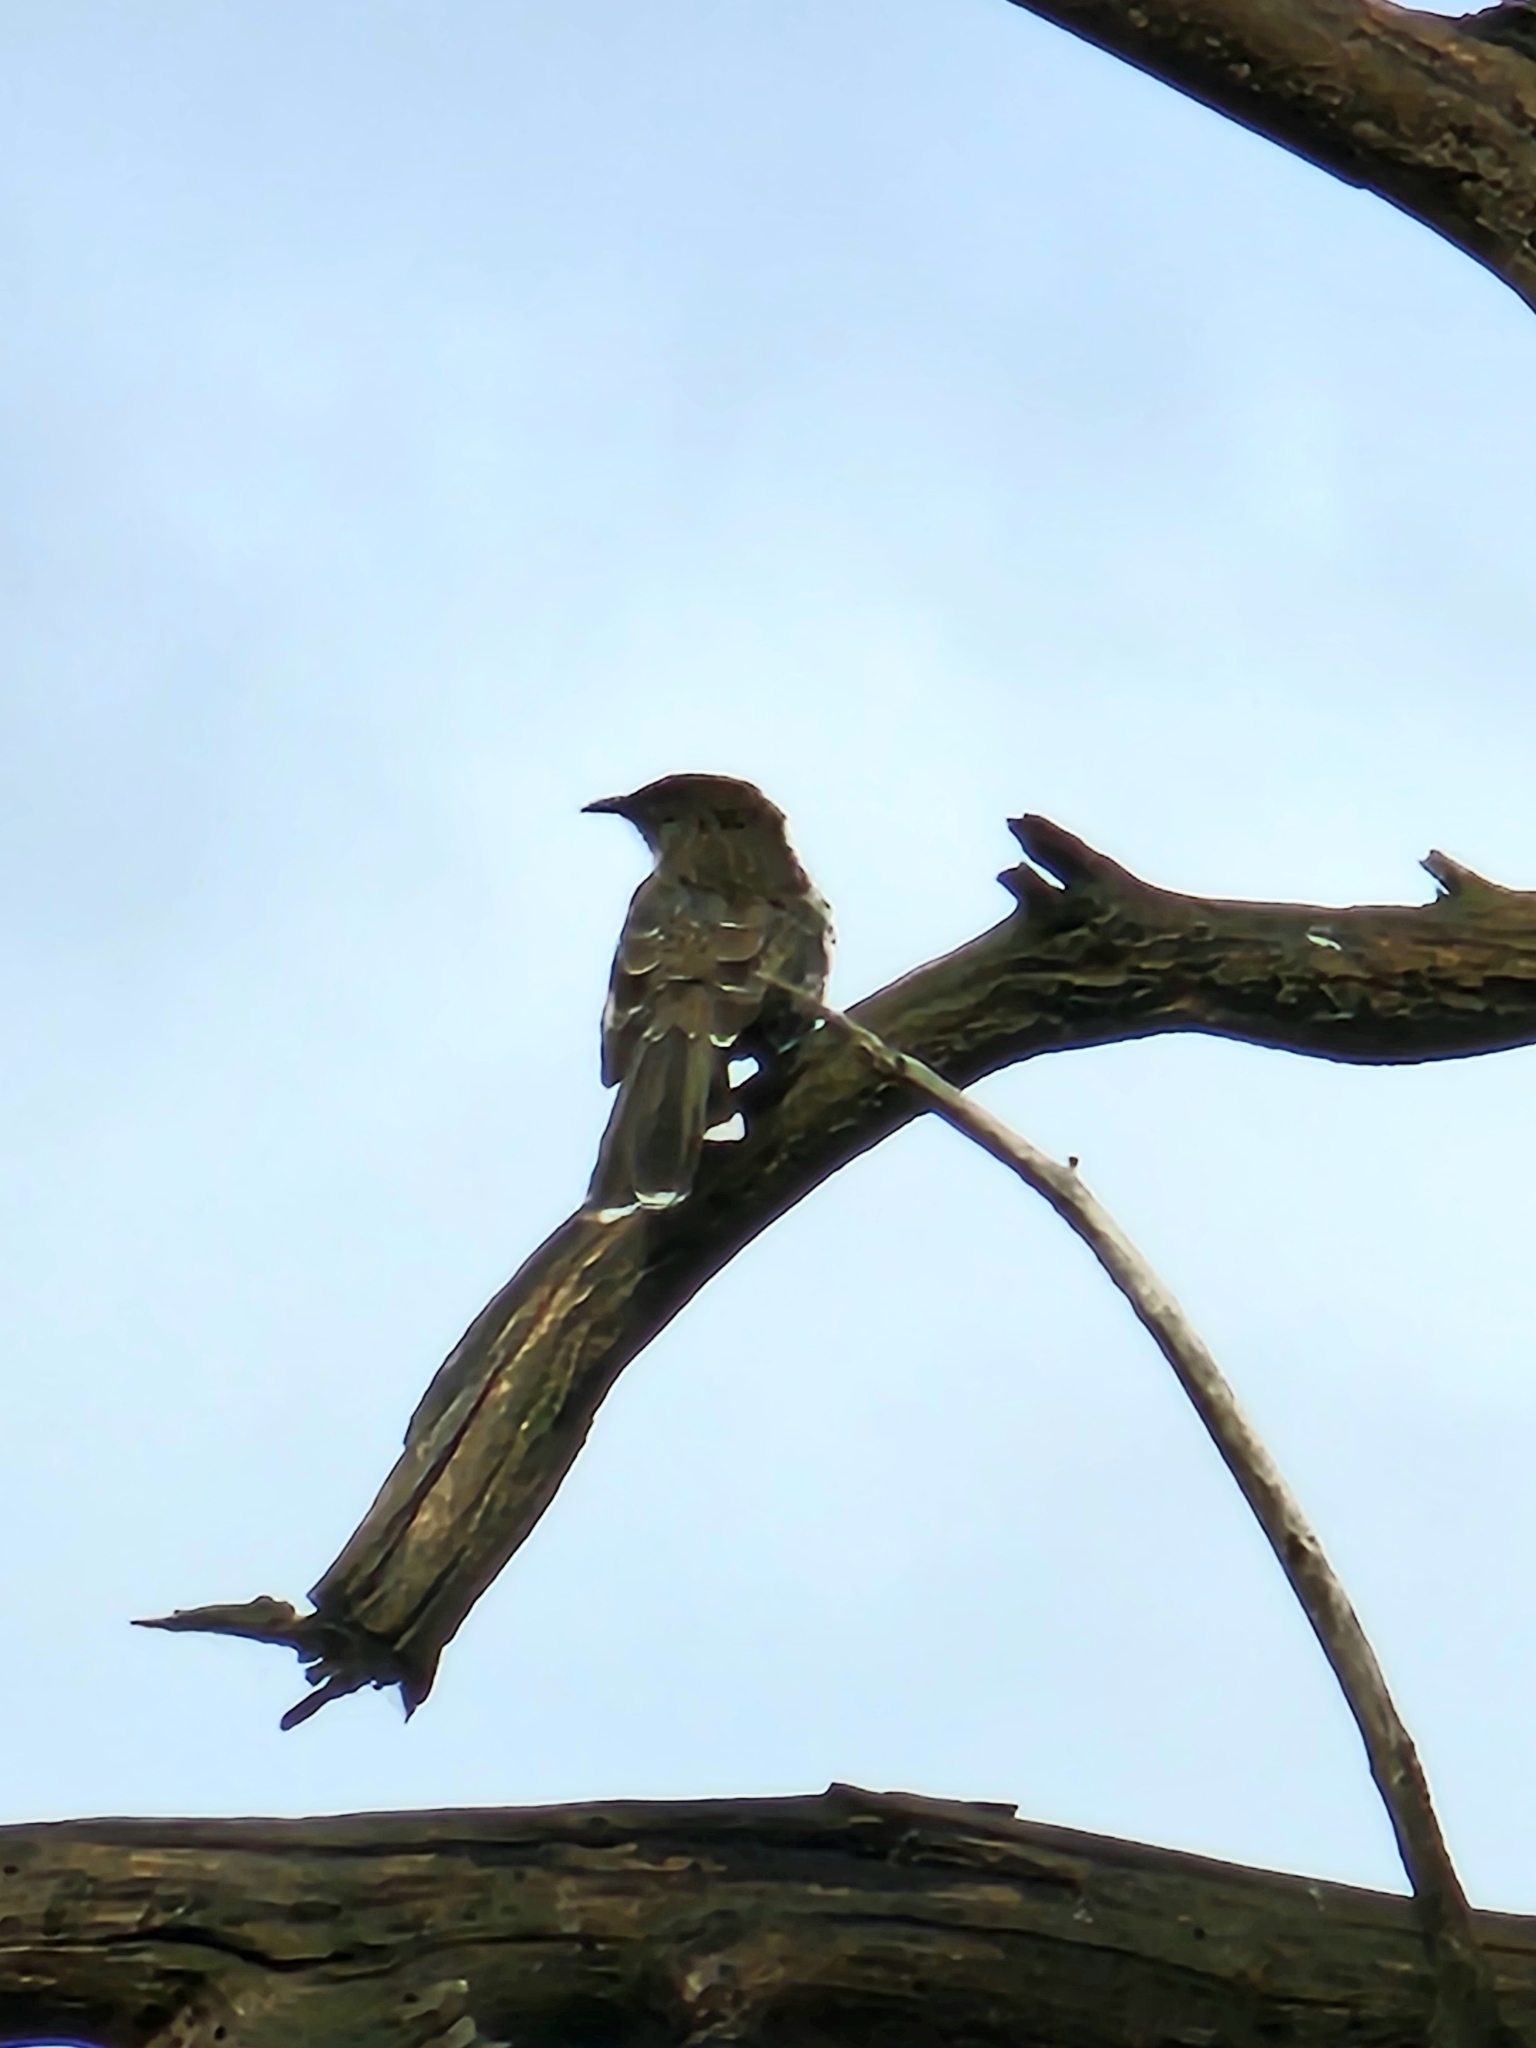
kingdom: Animalia
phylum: Chordata
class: Aves
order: Passeriformes
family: Meliphagidae
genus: Anthochaera
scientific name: Anthochaera chrysoptera
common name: Little wattlebird
